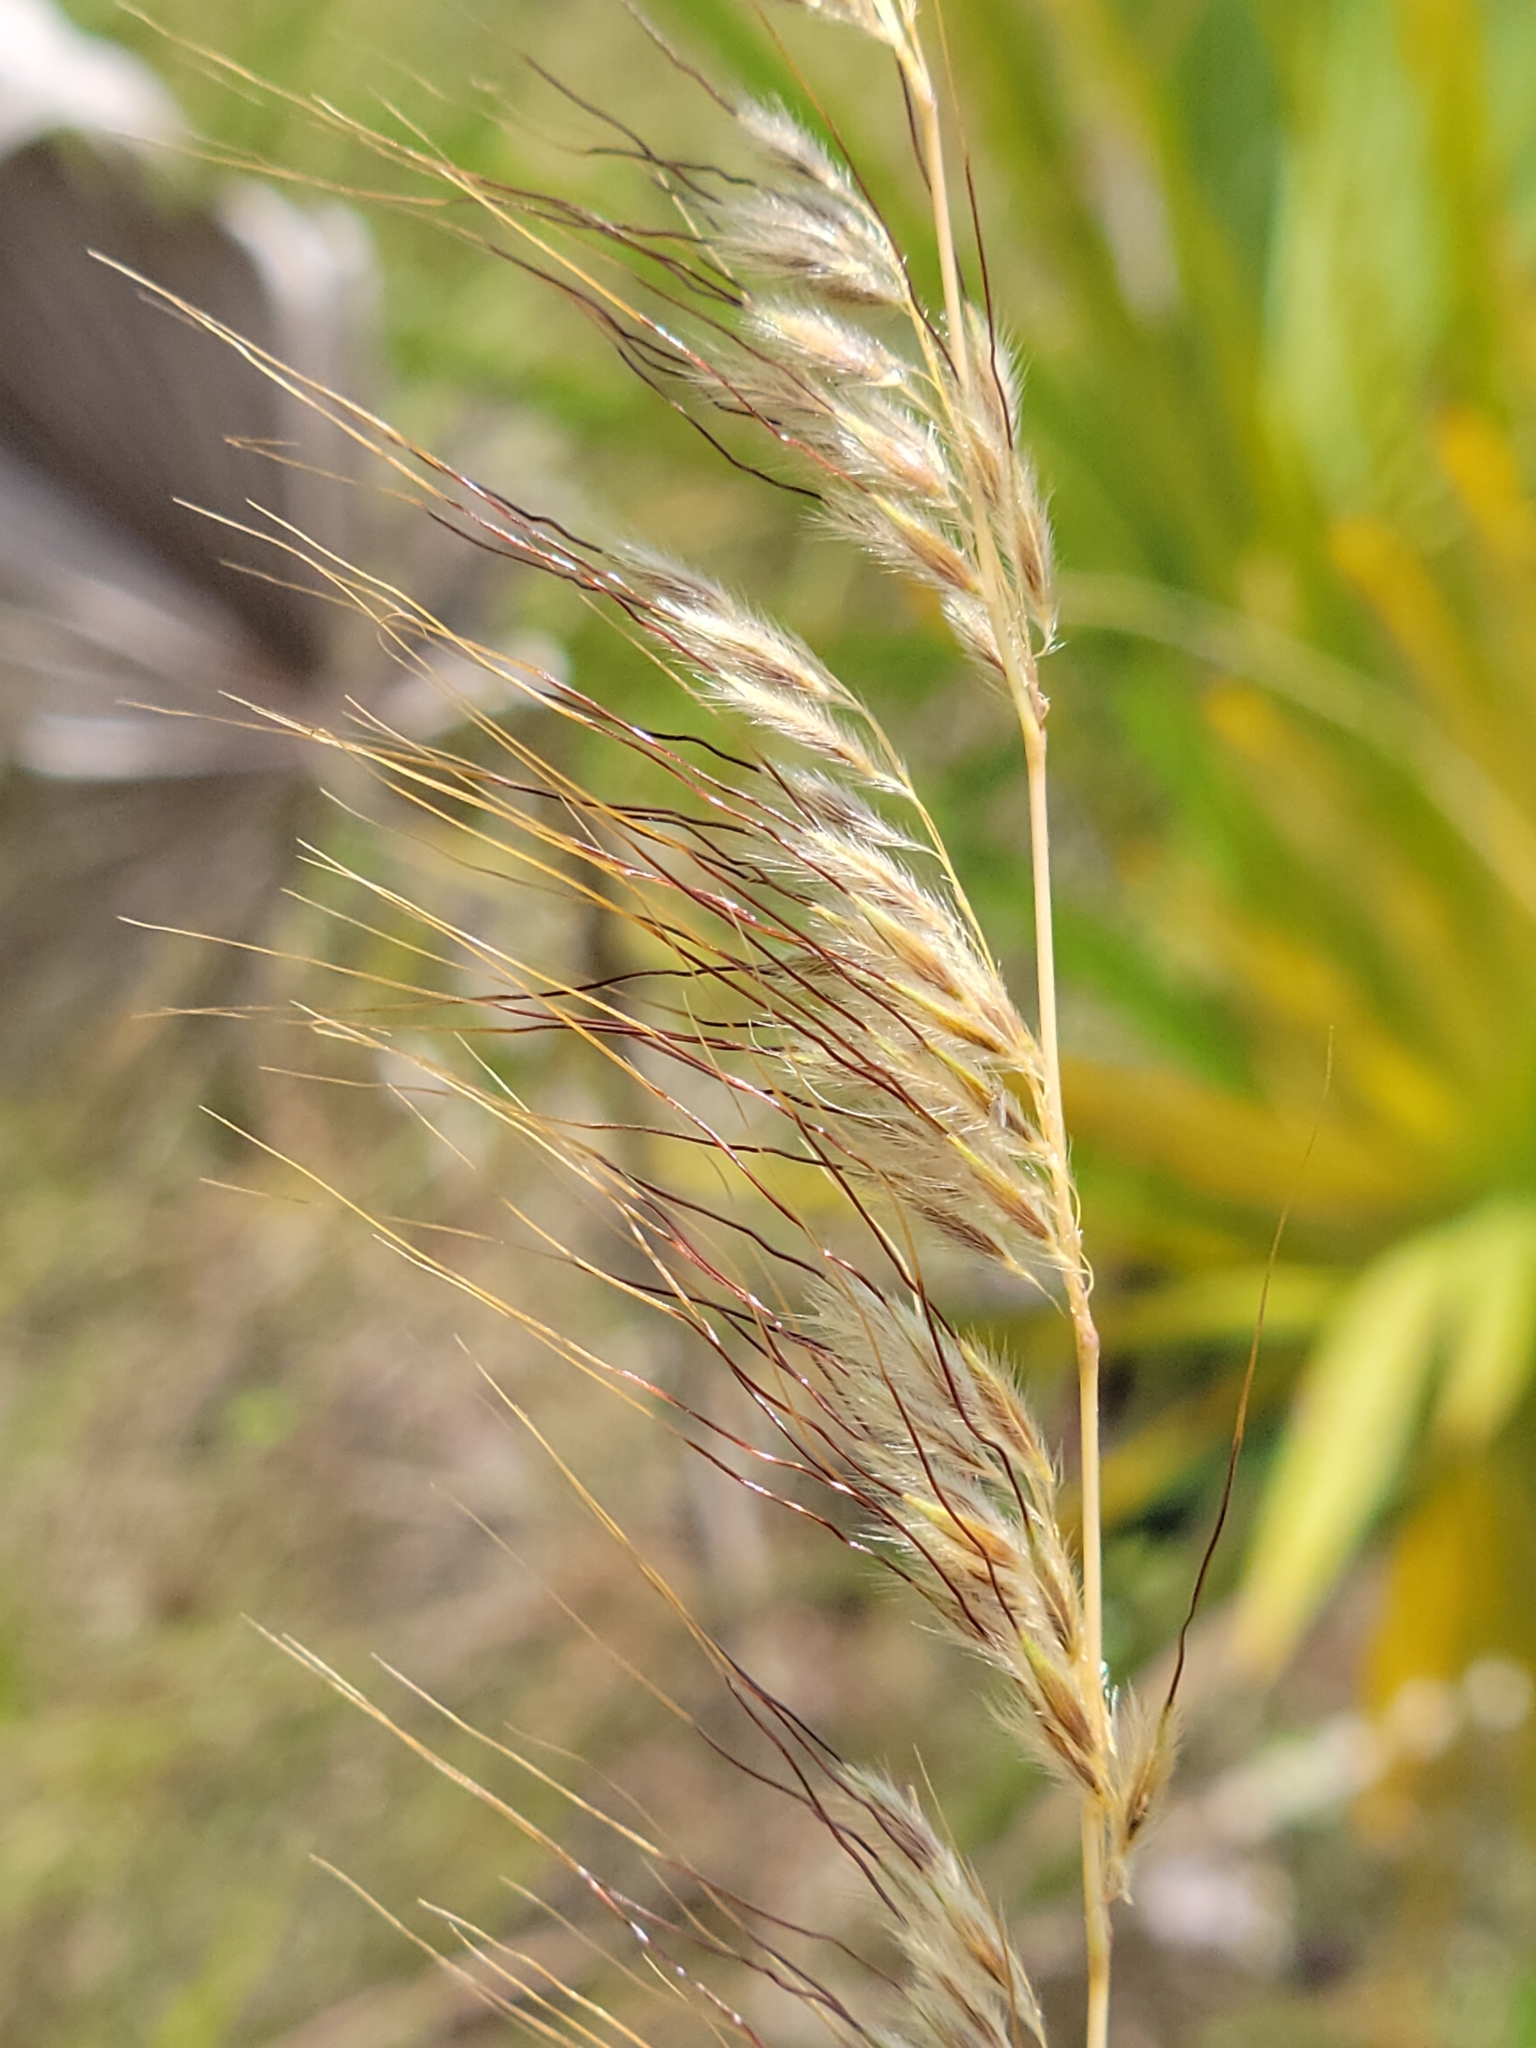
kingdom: Plantae
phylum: Tracheophyta
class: Liliopsida
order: Poales
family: Poaceae
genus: Sorghastrum
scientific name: Sorghastrum secundum
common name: Lopsided indian grass
